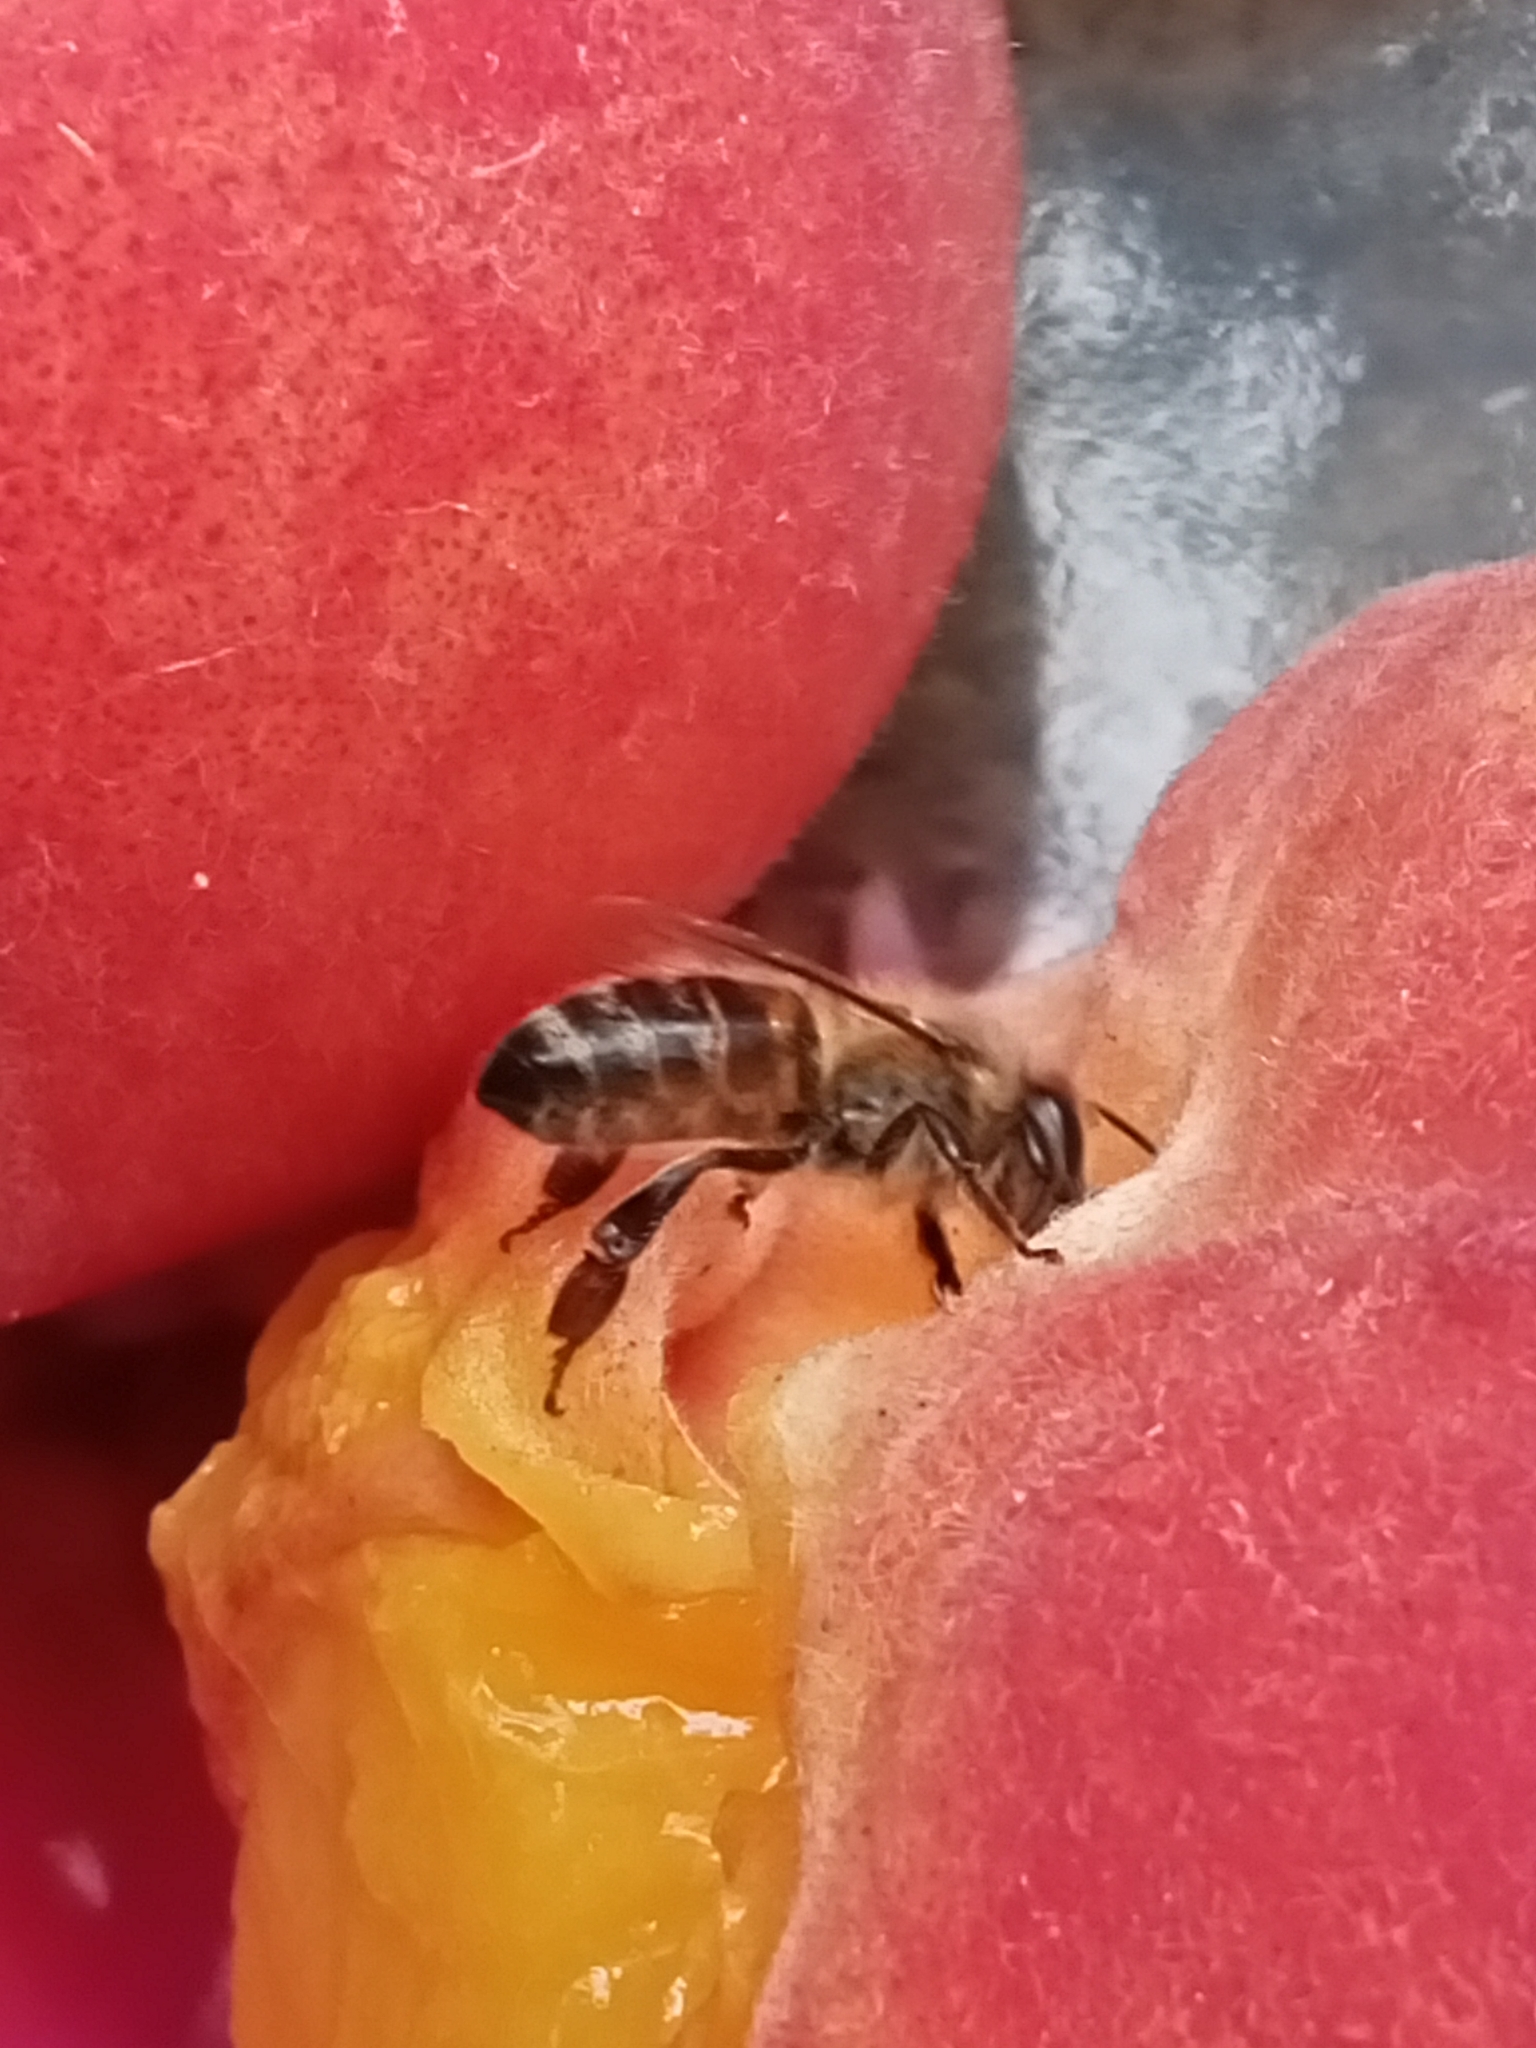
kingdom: Animalia
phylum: Arthropoda
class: Insecta
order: Hymenoptera
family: Apidae
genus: Apis
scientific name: Apis mellifera
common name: Honey bee
